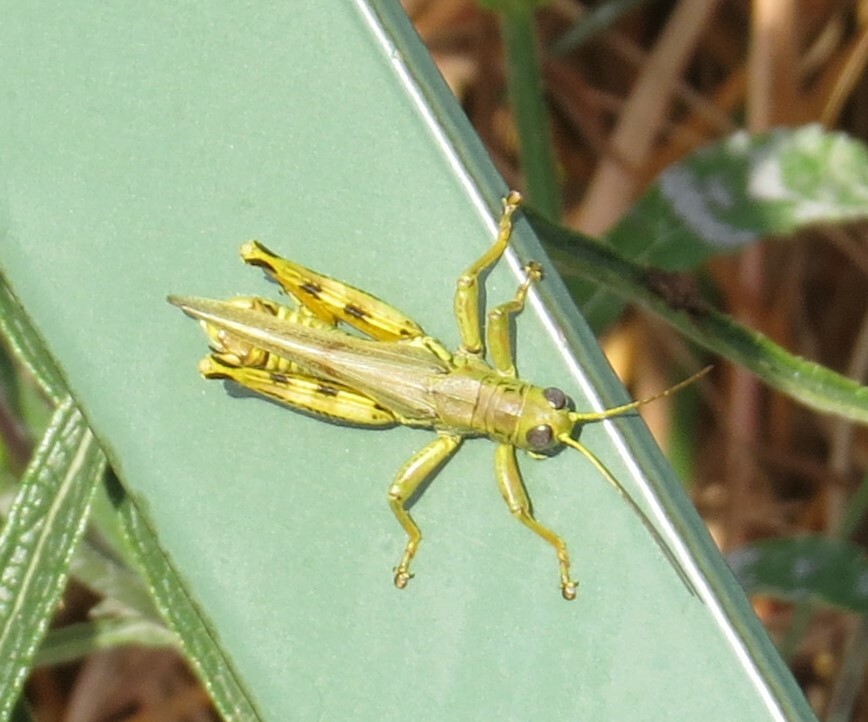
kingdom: Animalia
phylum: Arthropoda
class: Insecta
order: Orthoptera
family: Acrididae
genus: Melanoplus
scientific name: Melanoplus differentialis
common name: Differential grasshopper
